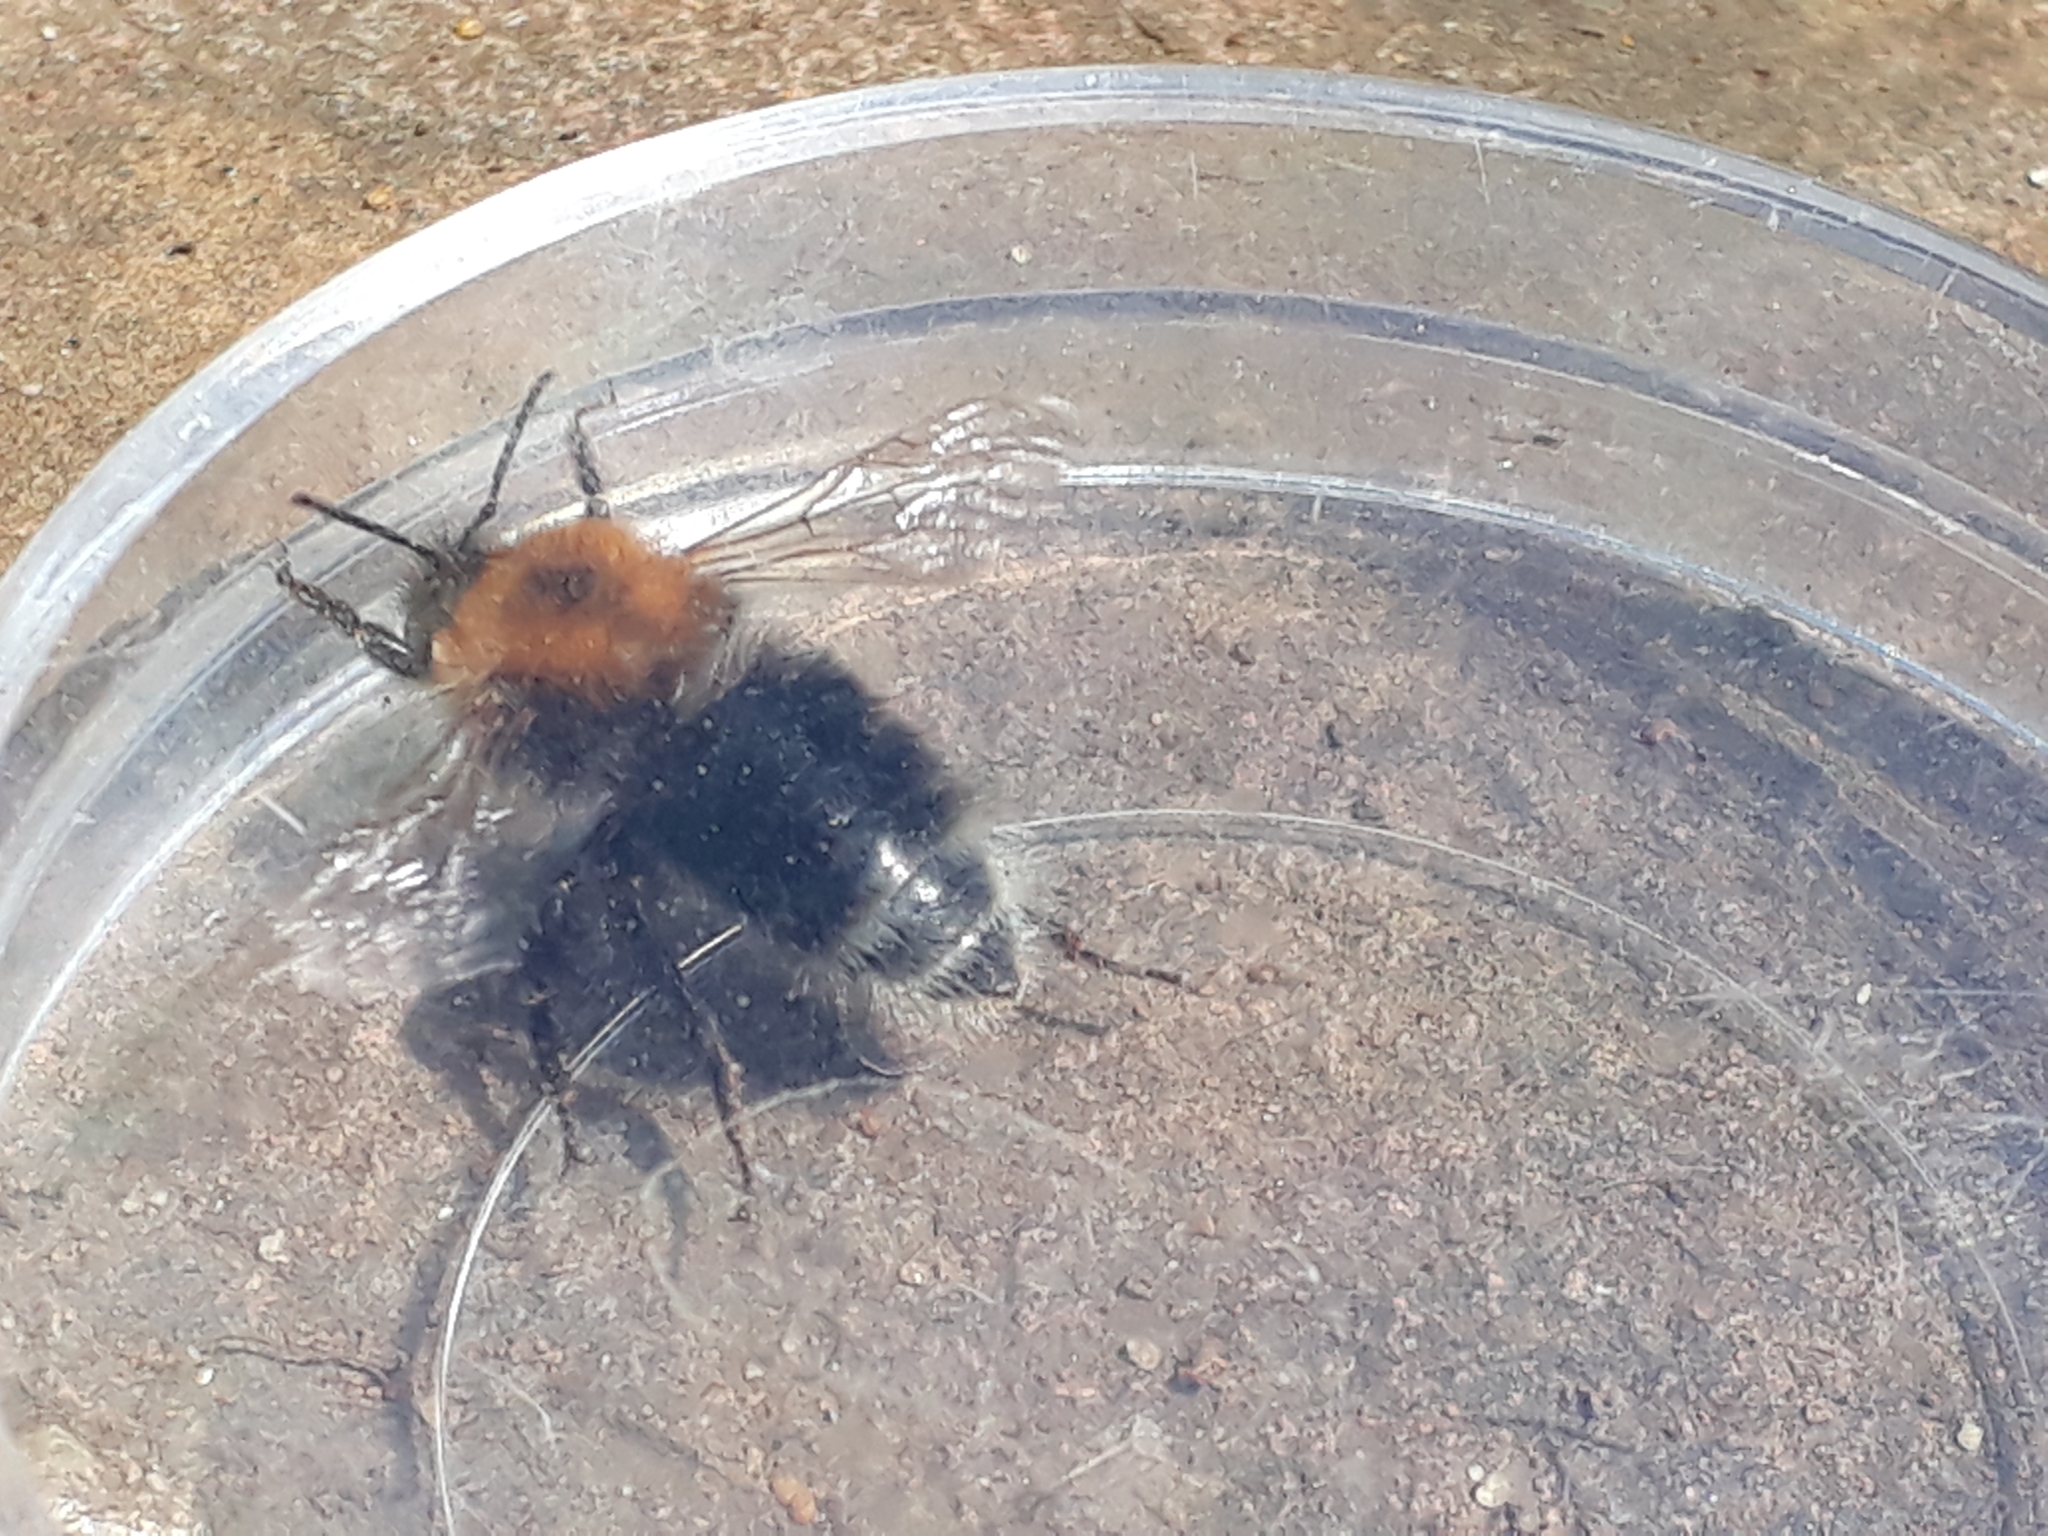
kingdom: Animalia
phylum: Arthropoda
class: Insecta
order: Hymenoptera
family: Apidae
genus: Bombus
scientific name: Bombus hypnorum
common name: New garden bumblebee
